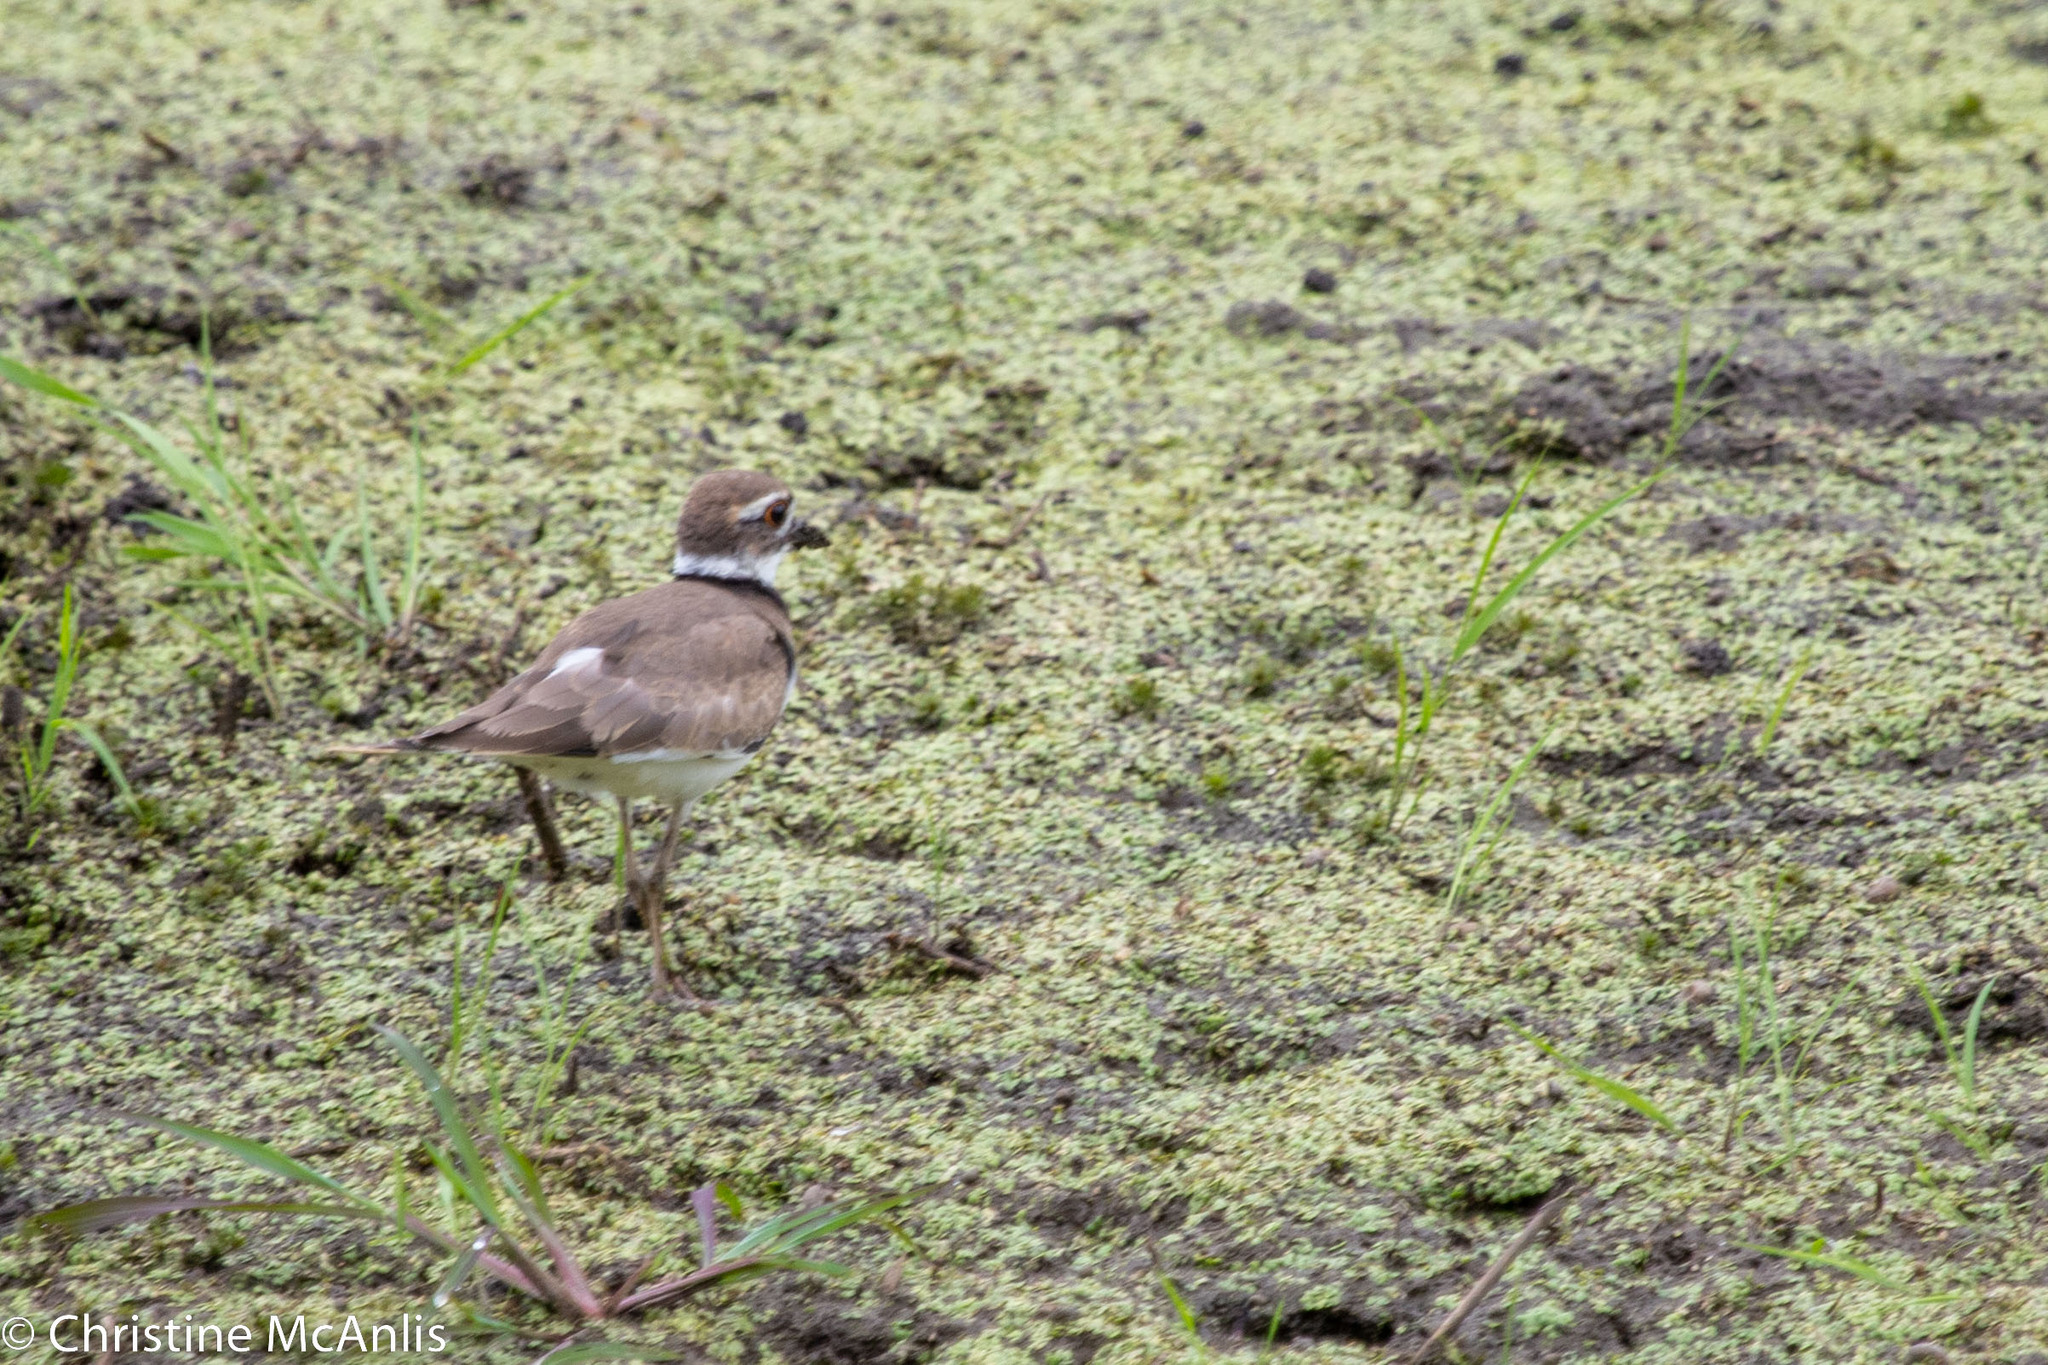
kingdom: Animalia
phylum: Chordata
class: Aves
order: Charadriiformes
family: Charadriidae
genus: Charadrius
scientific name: Charadrius vociferus
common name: Killdeer
